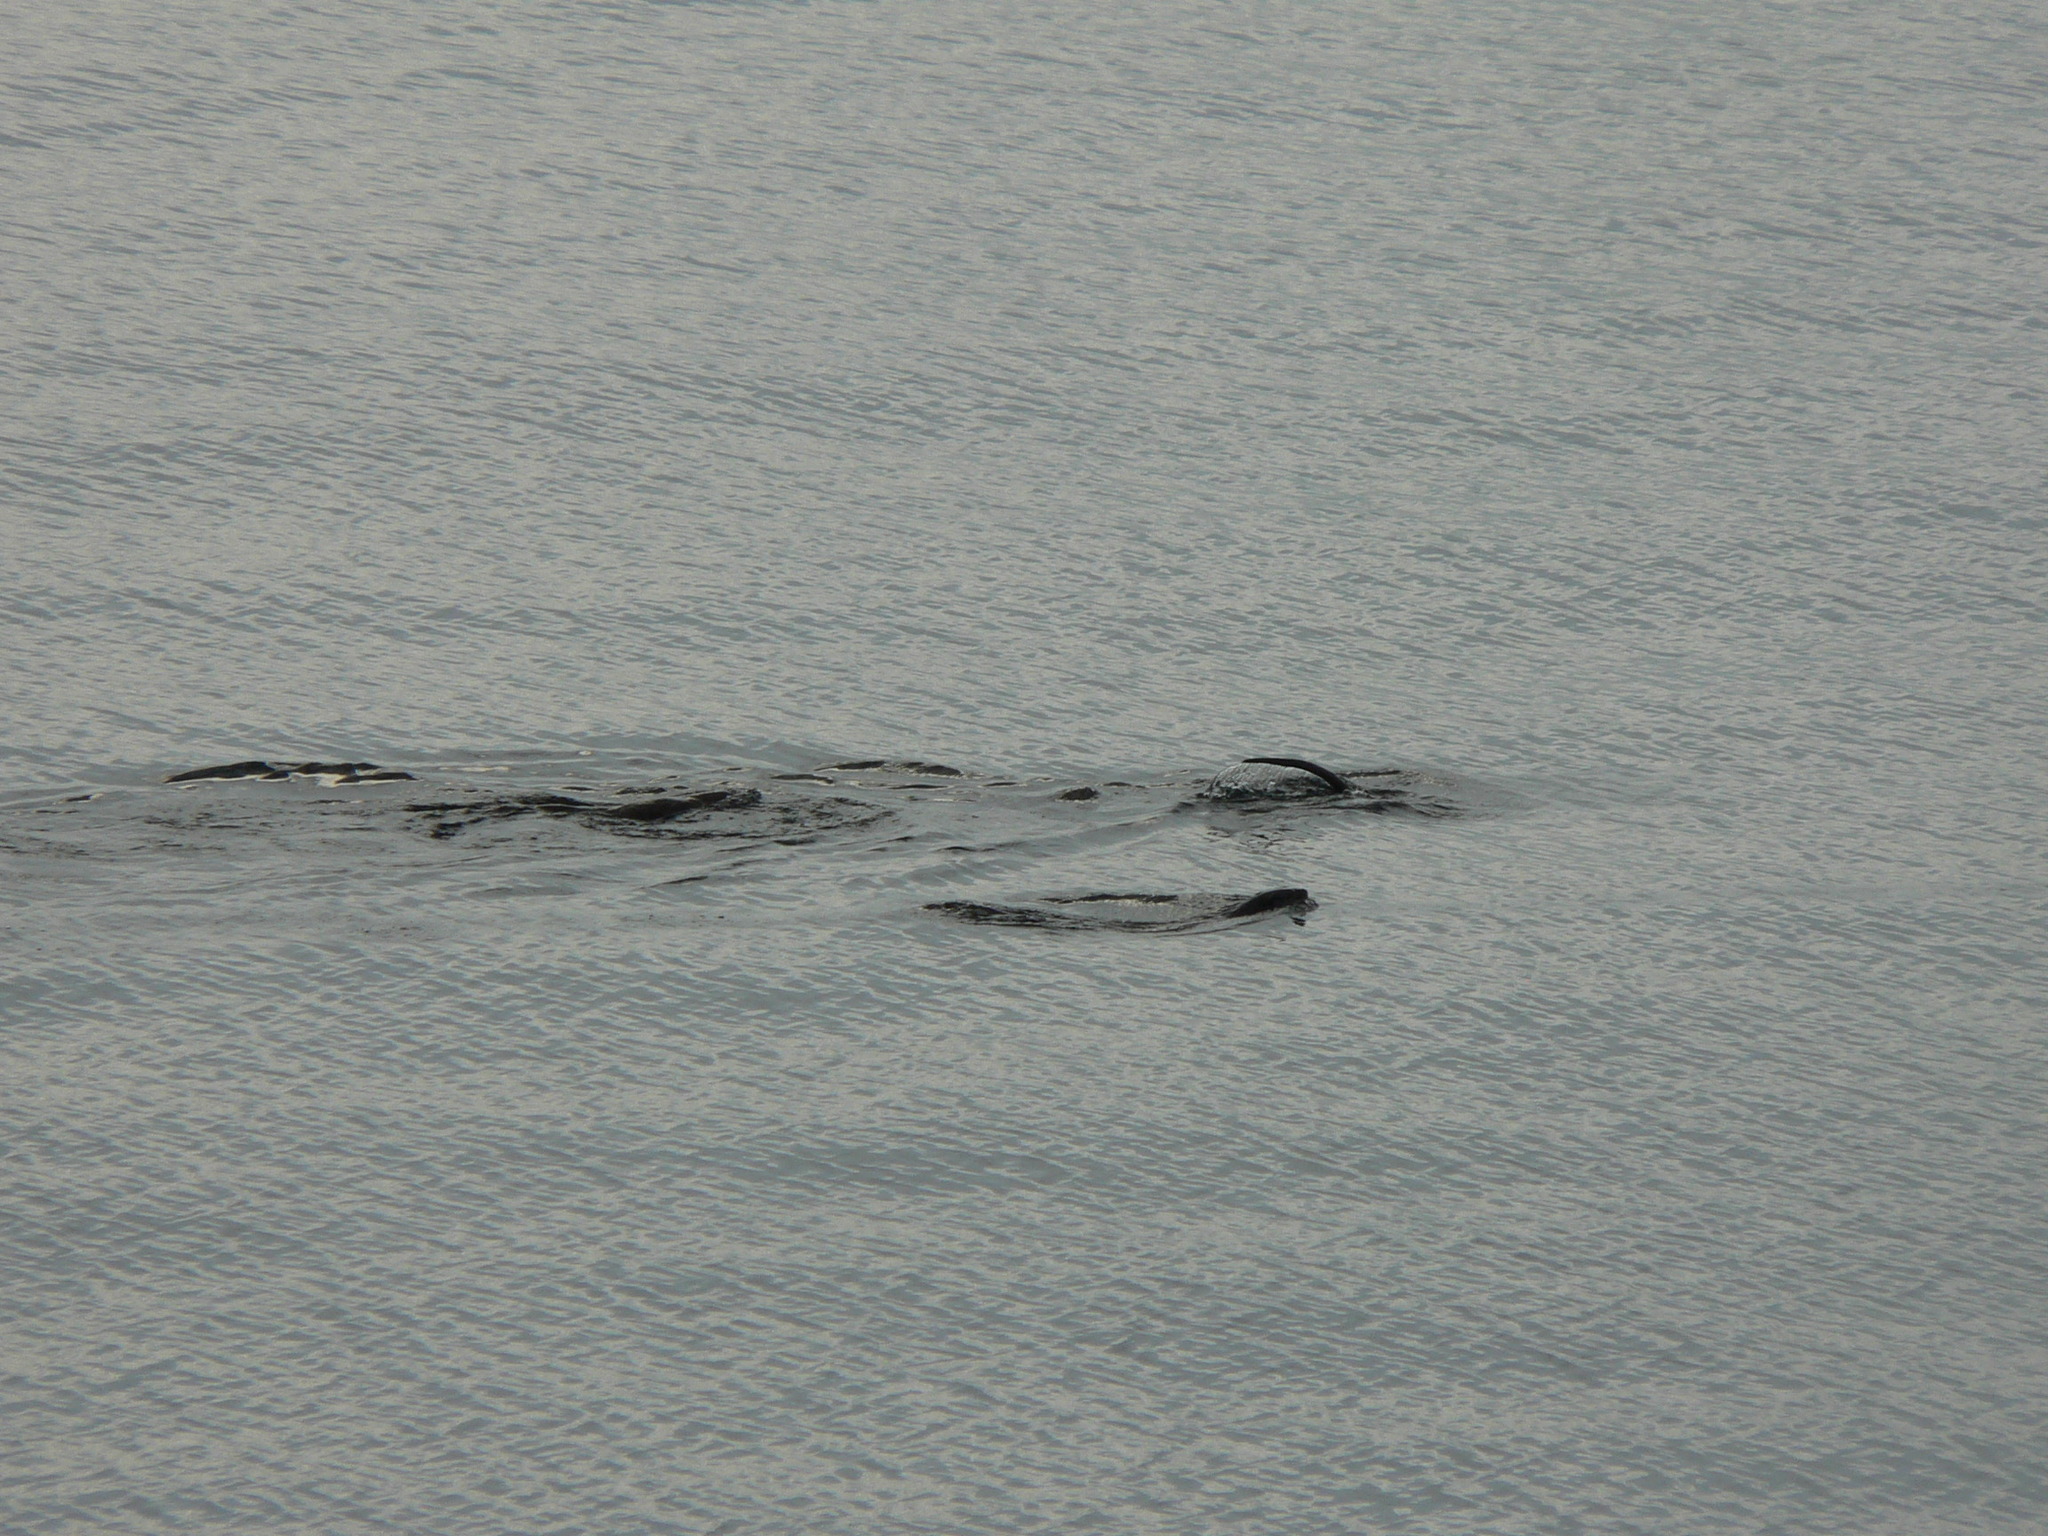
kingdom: Animalia
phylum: Chordata
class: Mammalia
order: Carnivora
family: Mustelidae
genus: Lontra
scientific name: Lontra canadensis
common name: North american river otter
